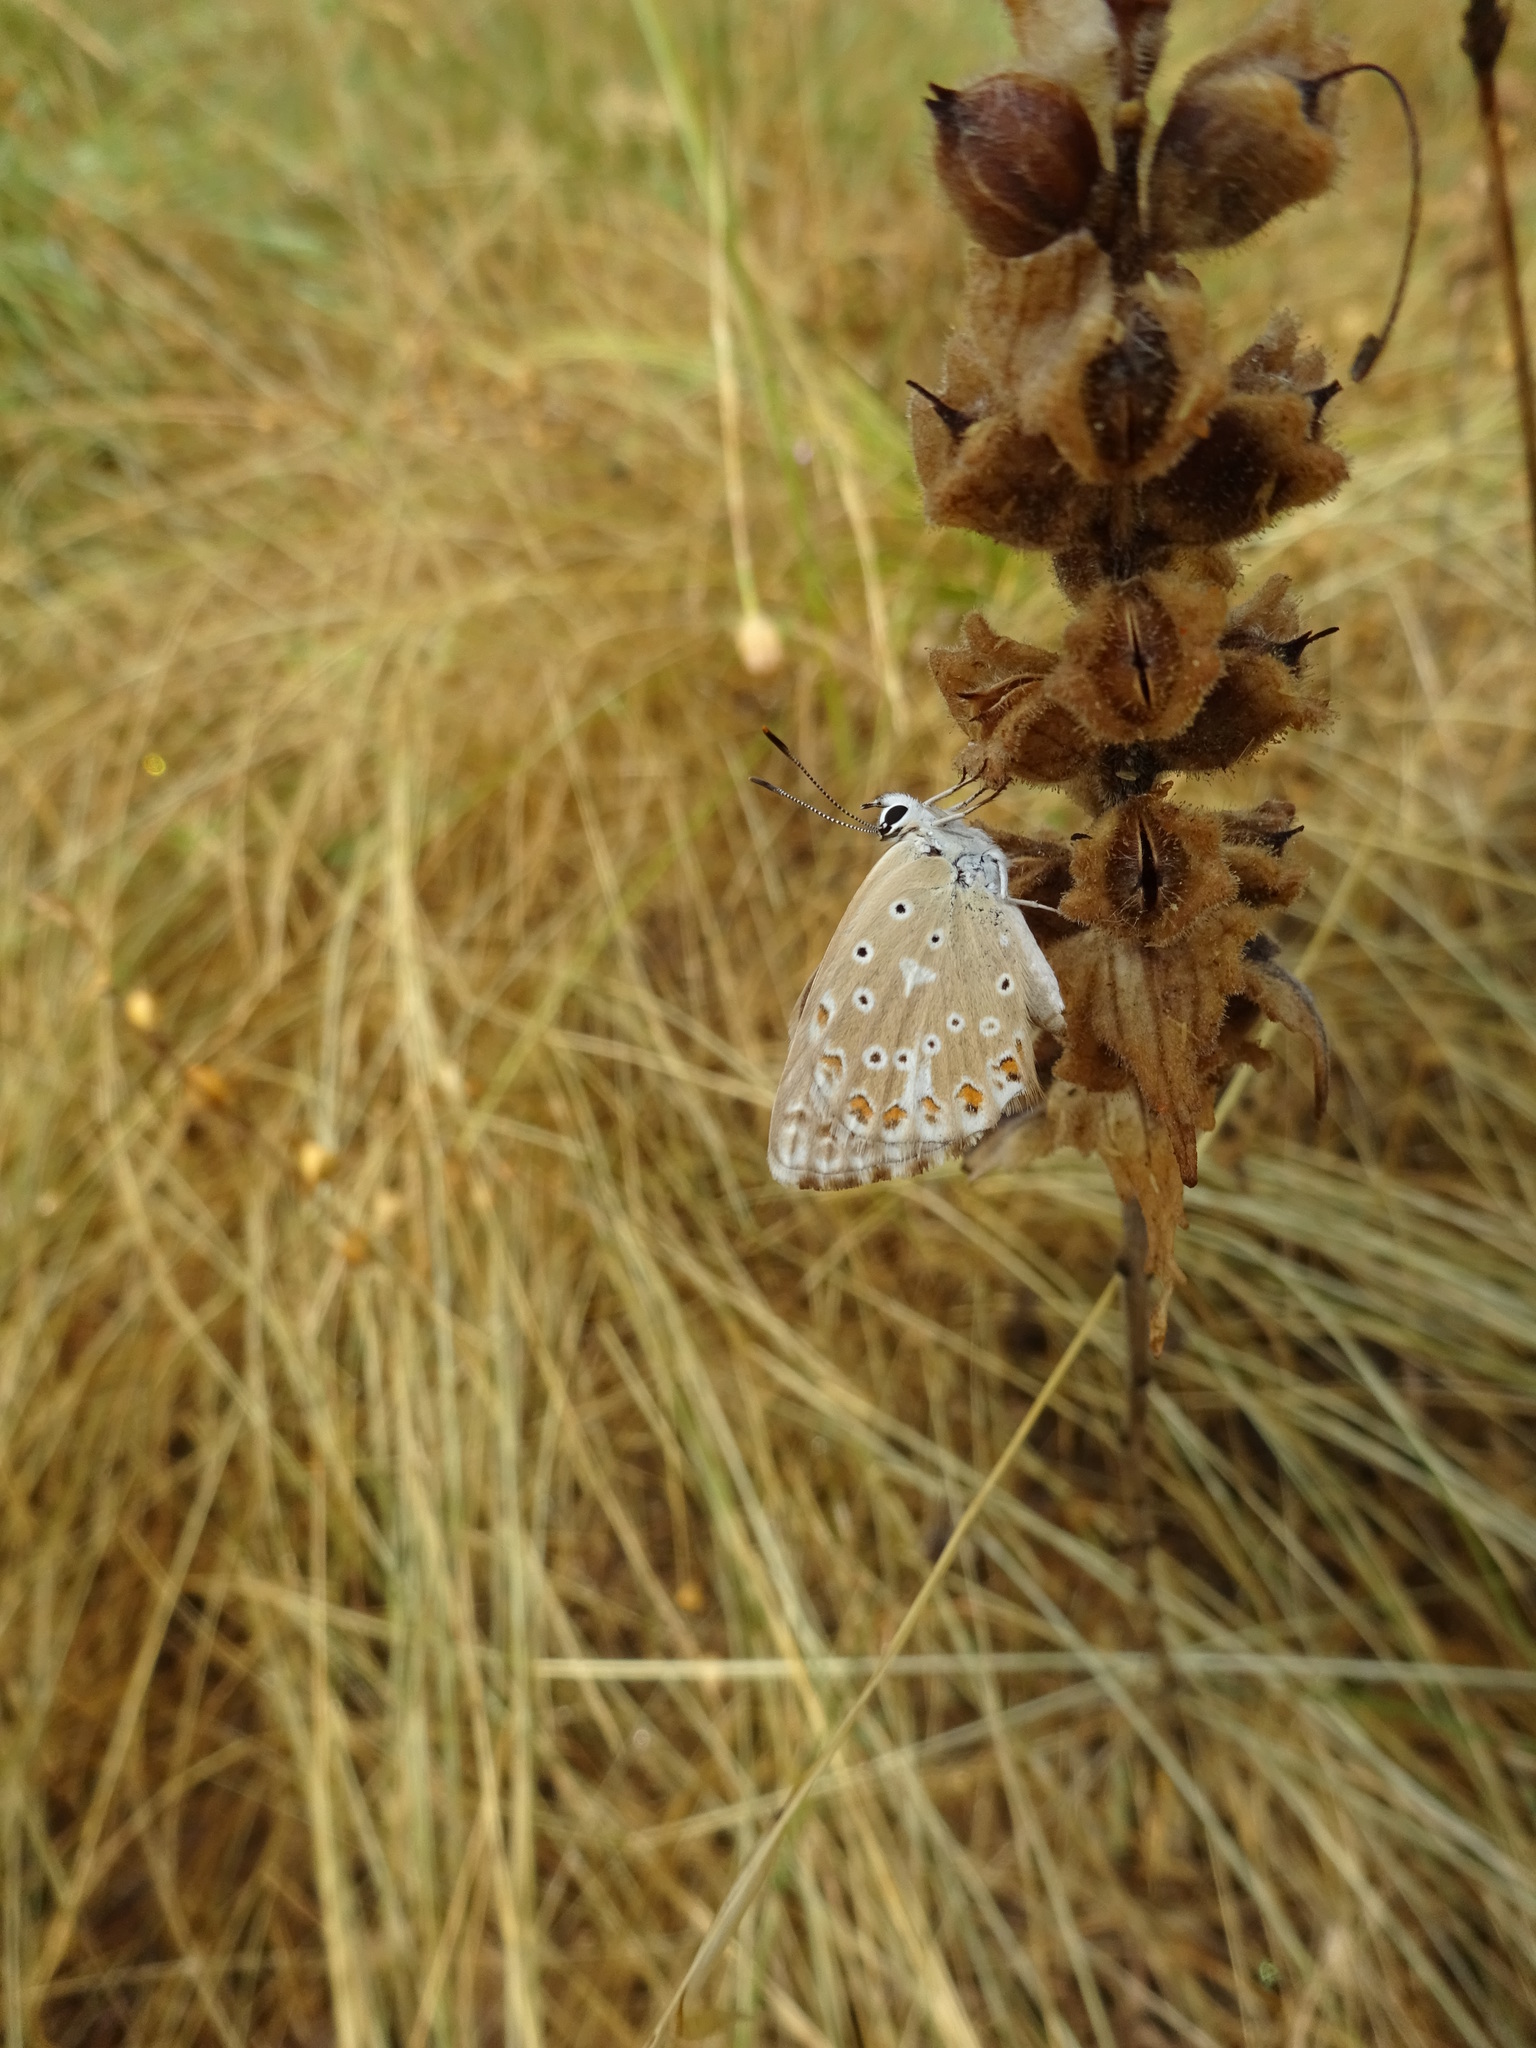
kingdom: Animalia
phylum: Arthropoda
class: Insecta
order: Lepidoptera
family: Lycaenidae
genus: Lysandra
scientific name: Lysandra bellargus
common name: Adonis blue
